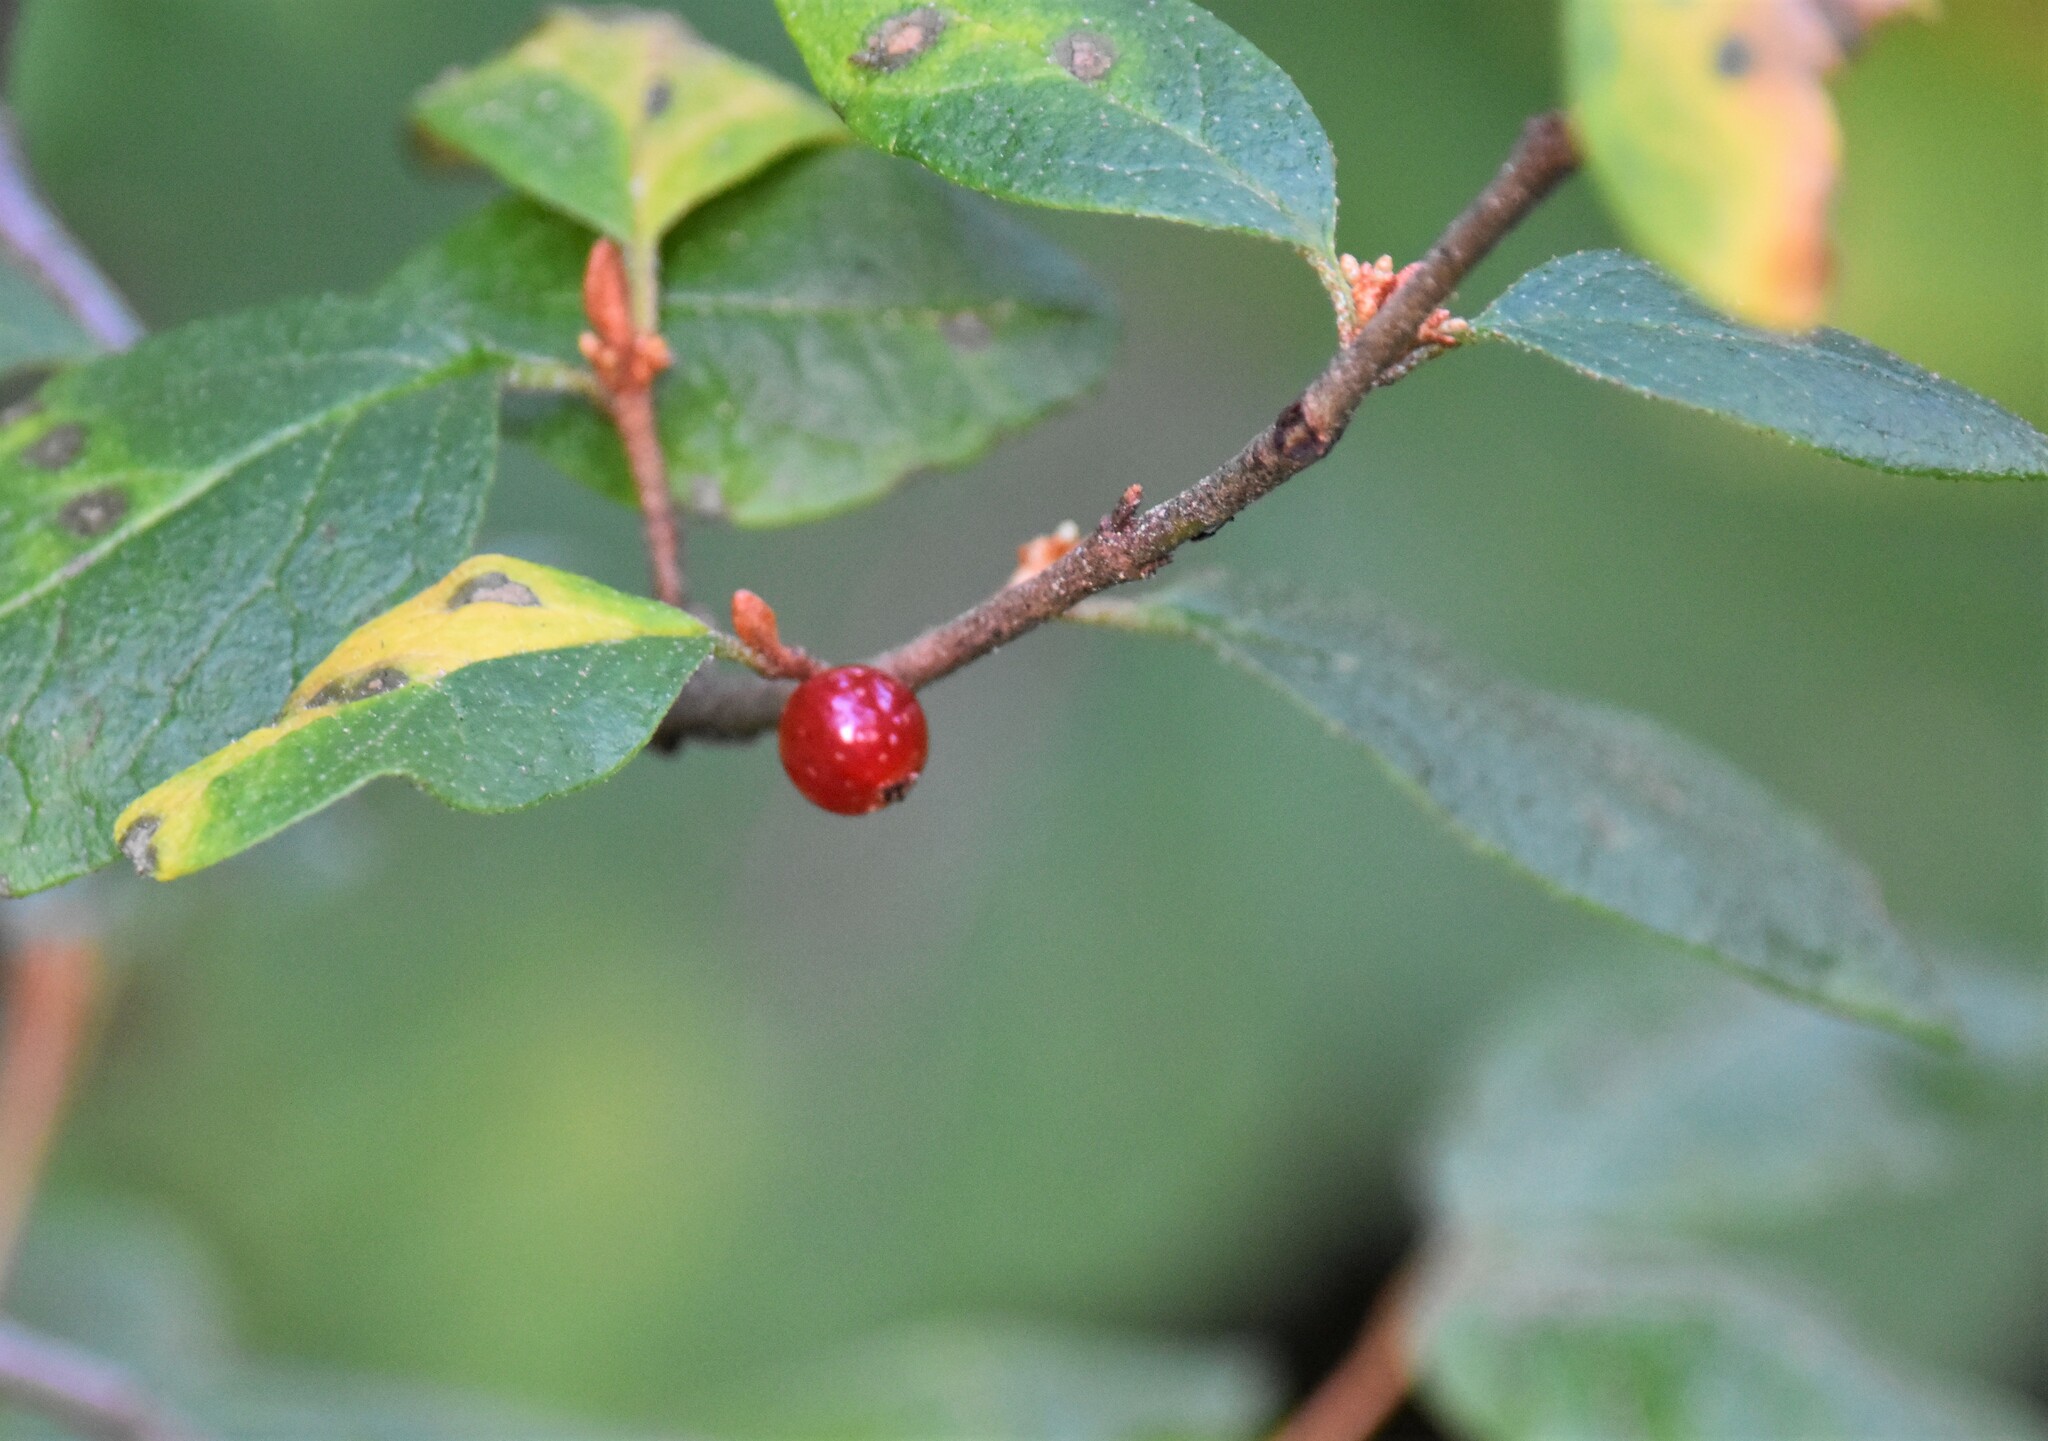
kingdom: Plantae
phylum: Tracheophyta
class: Magnoliopsida
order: Rosales
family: Elaeagnaceae
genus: Shepherdia
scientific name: Shepherdia canadensis
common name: Soapberry
